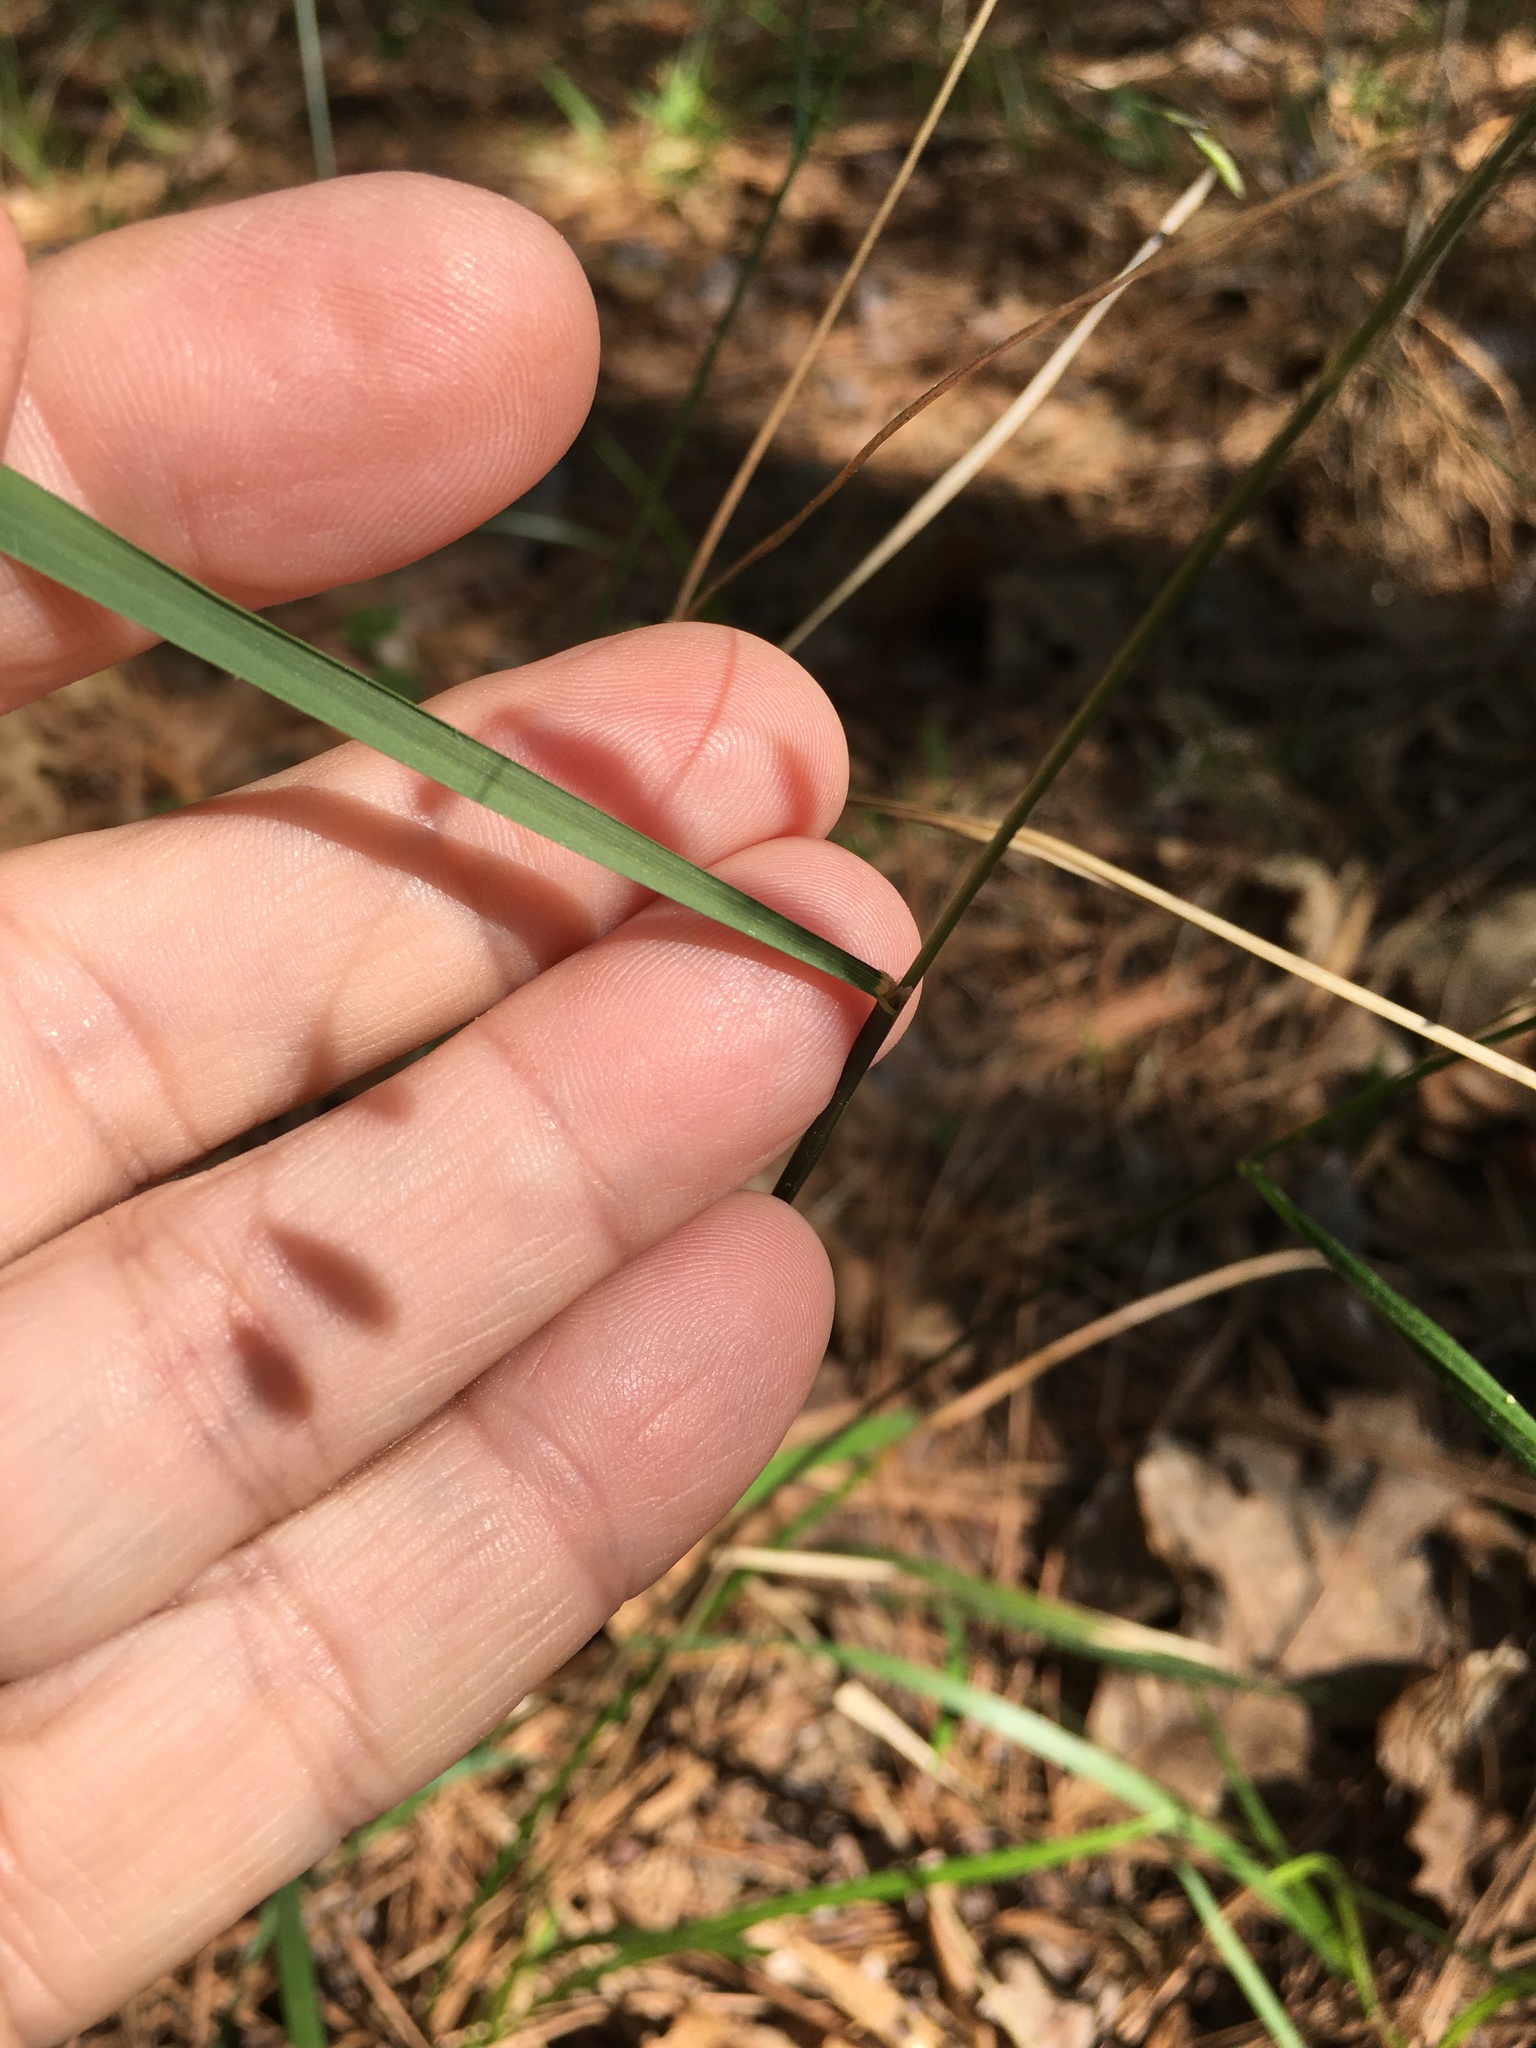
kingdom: Plantae
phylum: Tracheophyta
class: Liliopsida
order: Poales
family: Poaceae
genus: Melica
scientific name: Melica mutica
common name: Two-flower melic
